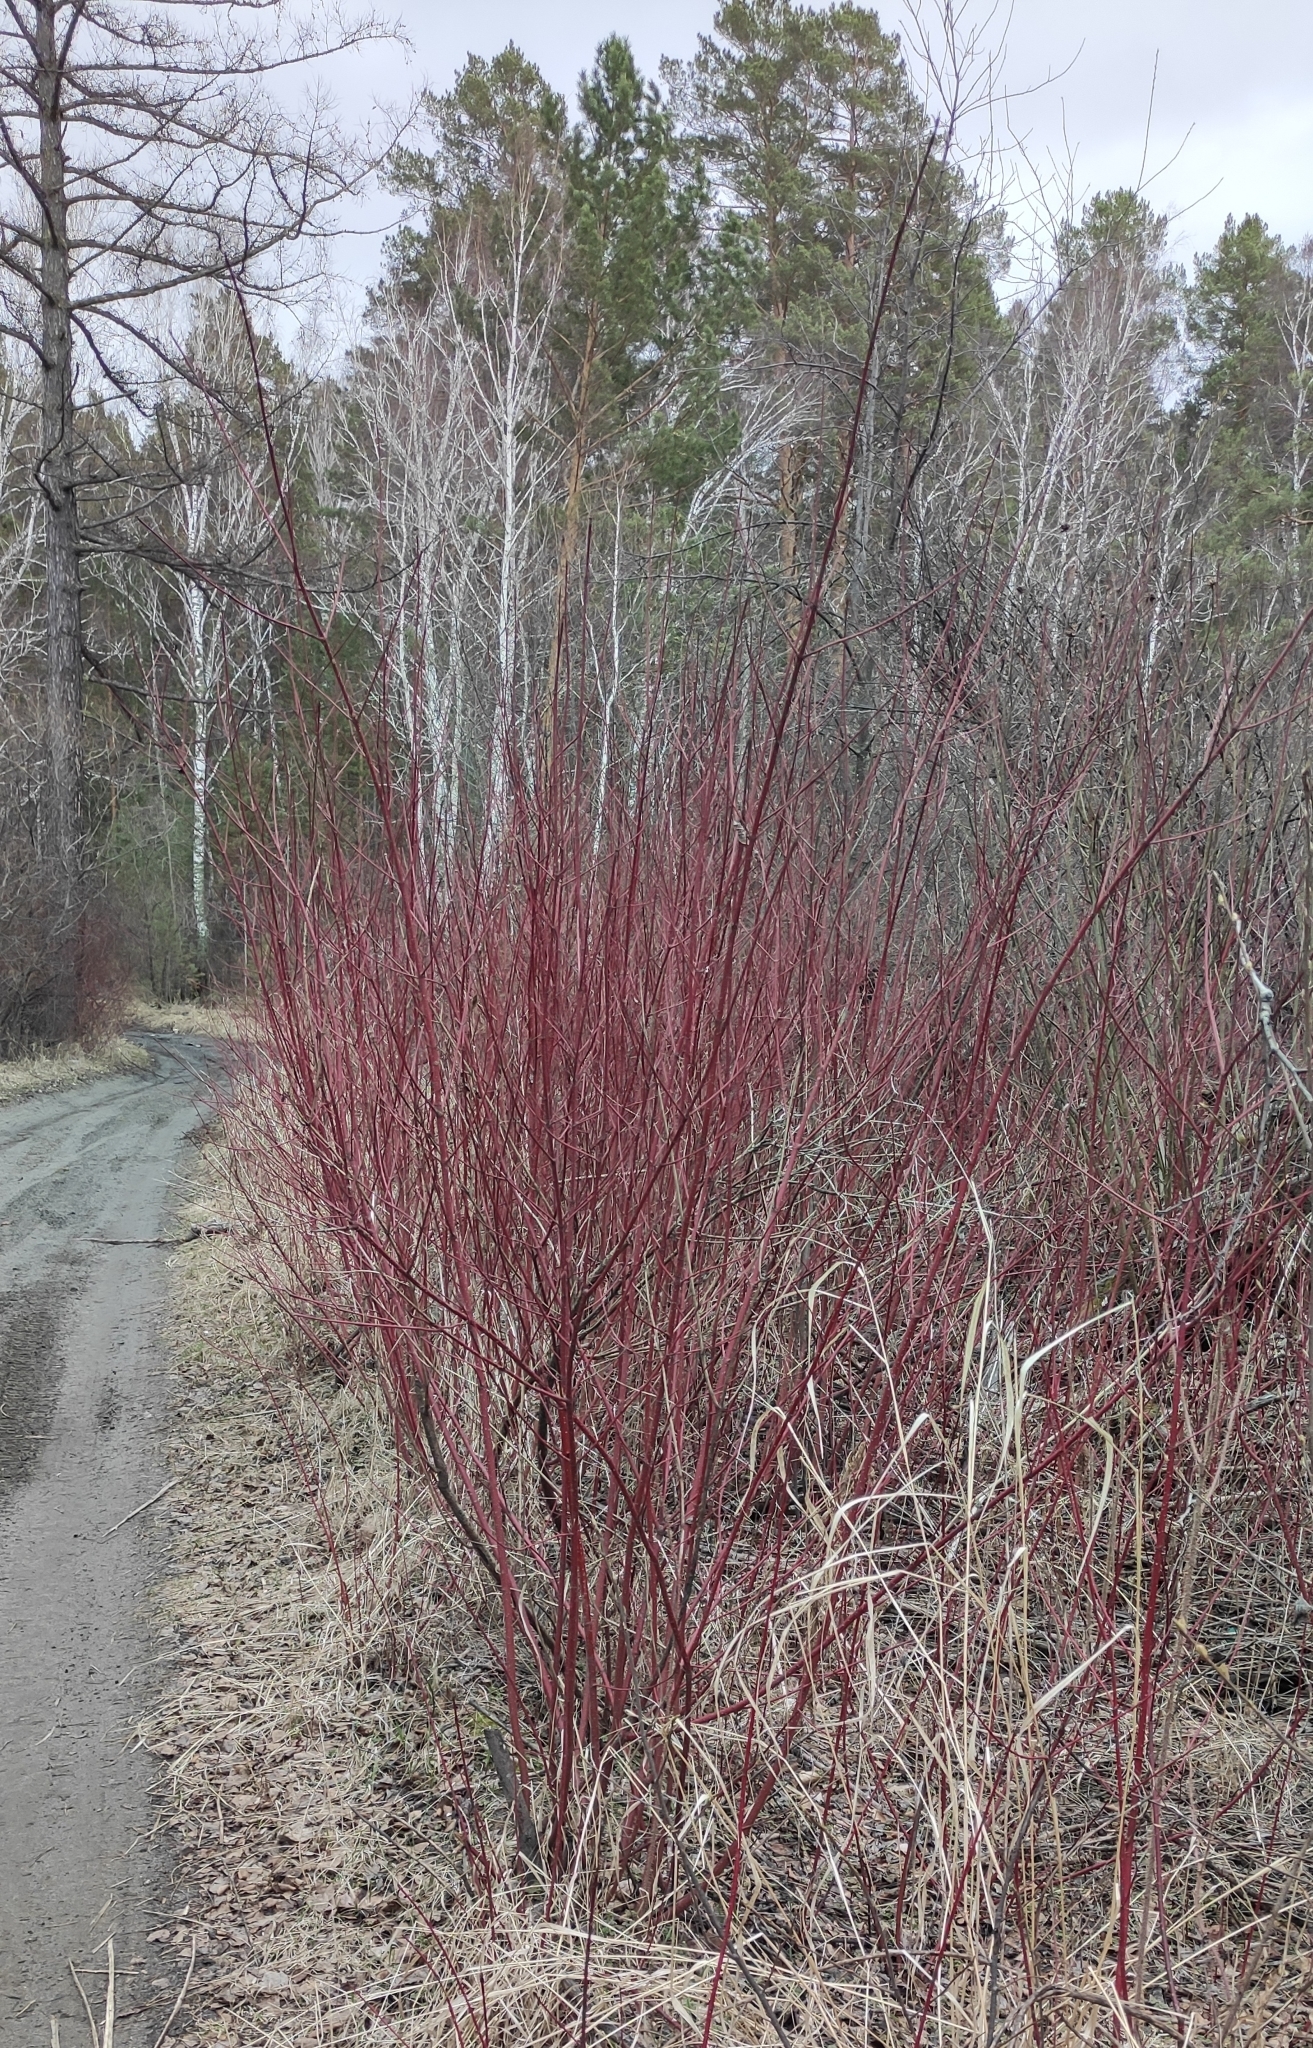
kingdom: Plantae
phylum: Tracheophyta
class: Magnoliopsida
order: Cornales
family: Cornaceae
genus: Cornus
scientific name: Cornus alba
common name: White dogwood
